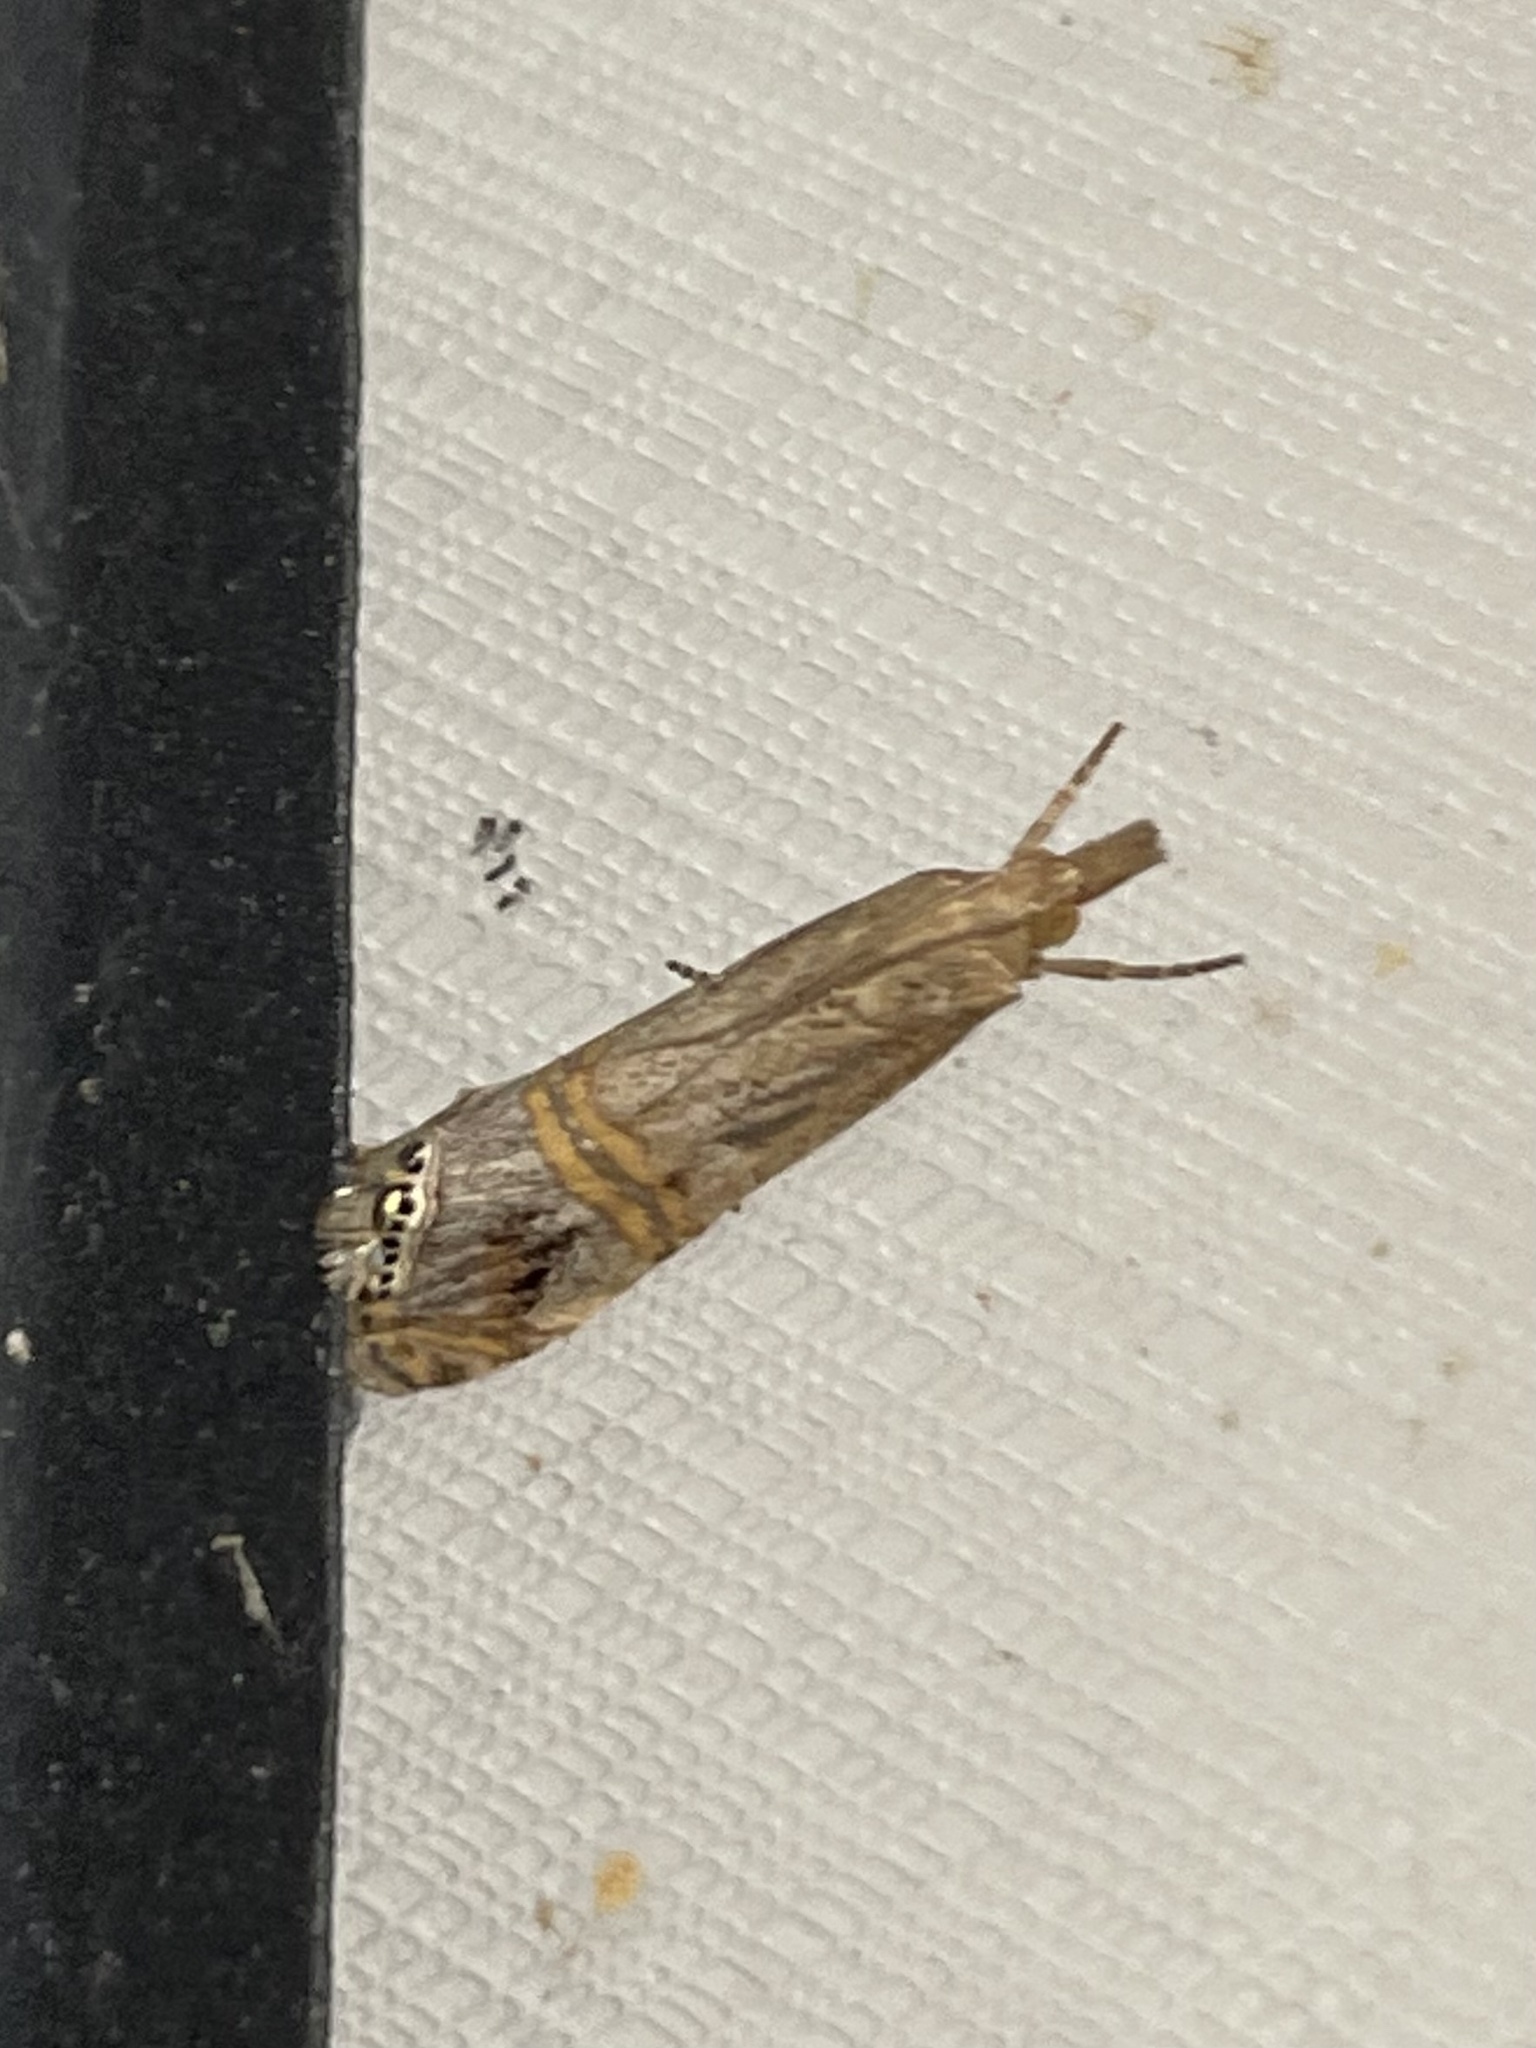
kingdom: Animalia
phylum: Arthropoda
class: Insecta
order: Lepidoptera
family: Crambidae
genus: Euchromius
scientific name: Euchromius ocellea
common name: Necklace veneer moth
